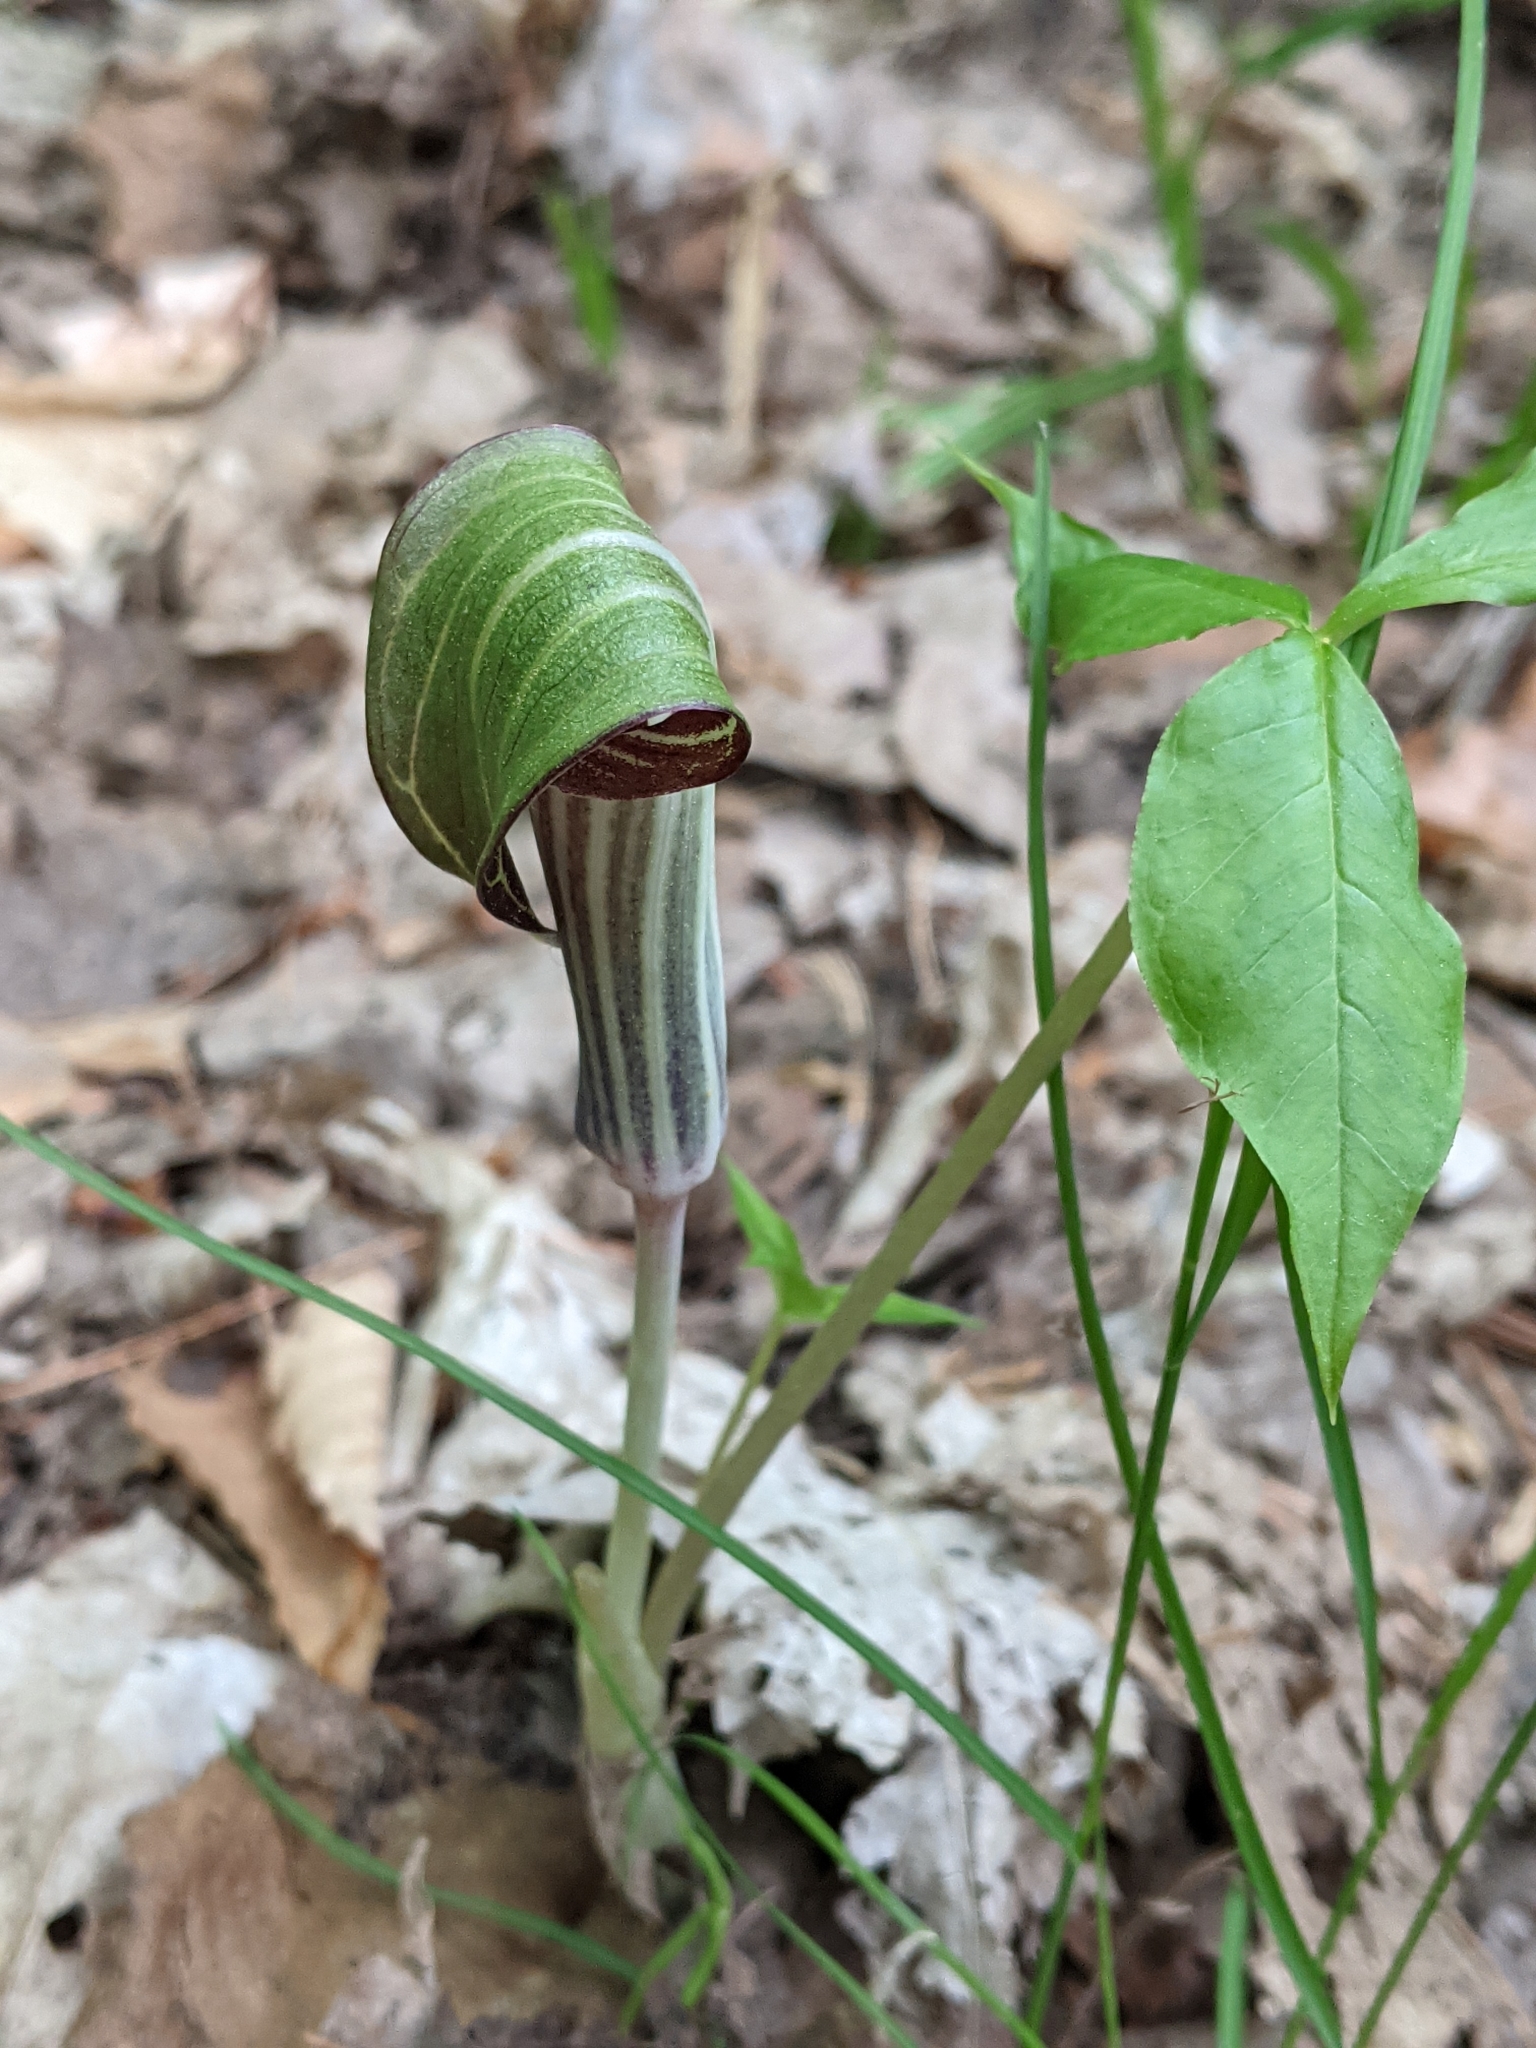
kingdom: Plantae
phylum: Tracheophyta
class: Liliopsida
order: Alismatales
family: Araceae
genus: Arisaema
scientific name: Arisaema triphyllum
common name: Jack-in-the-pulpit
